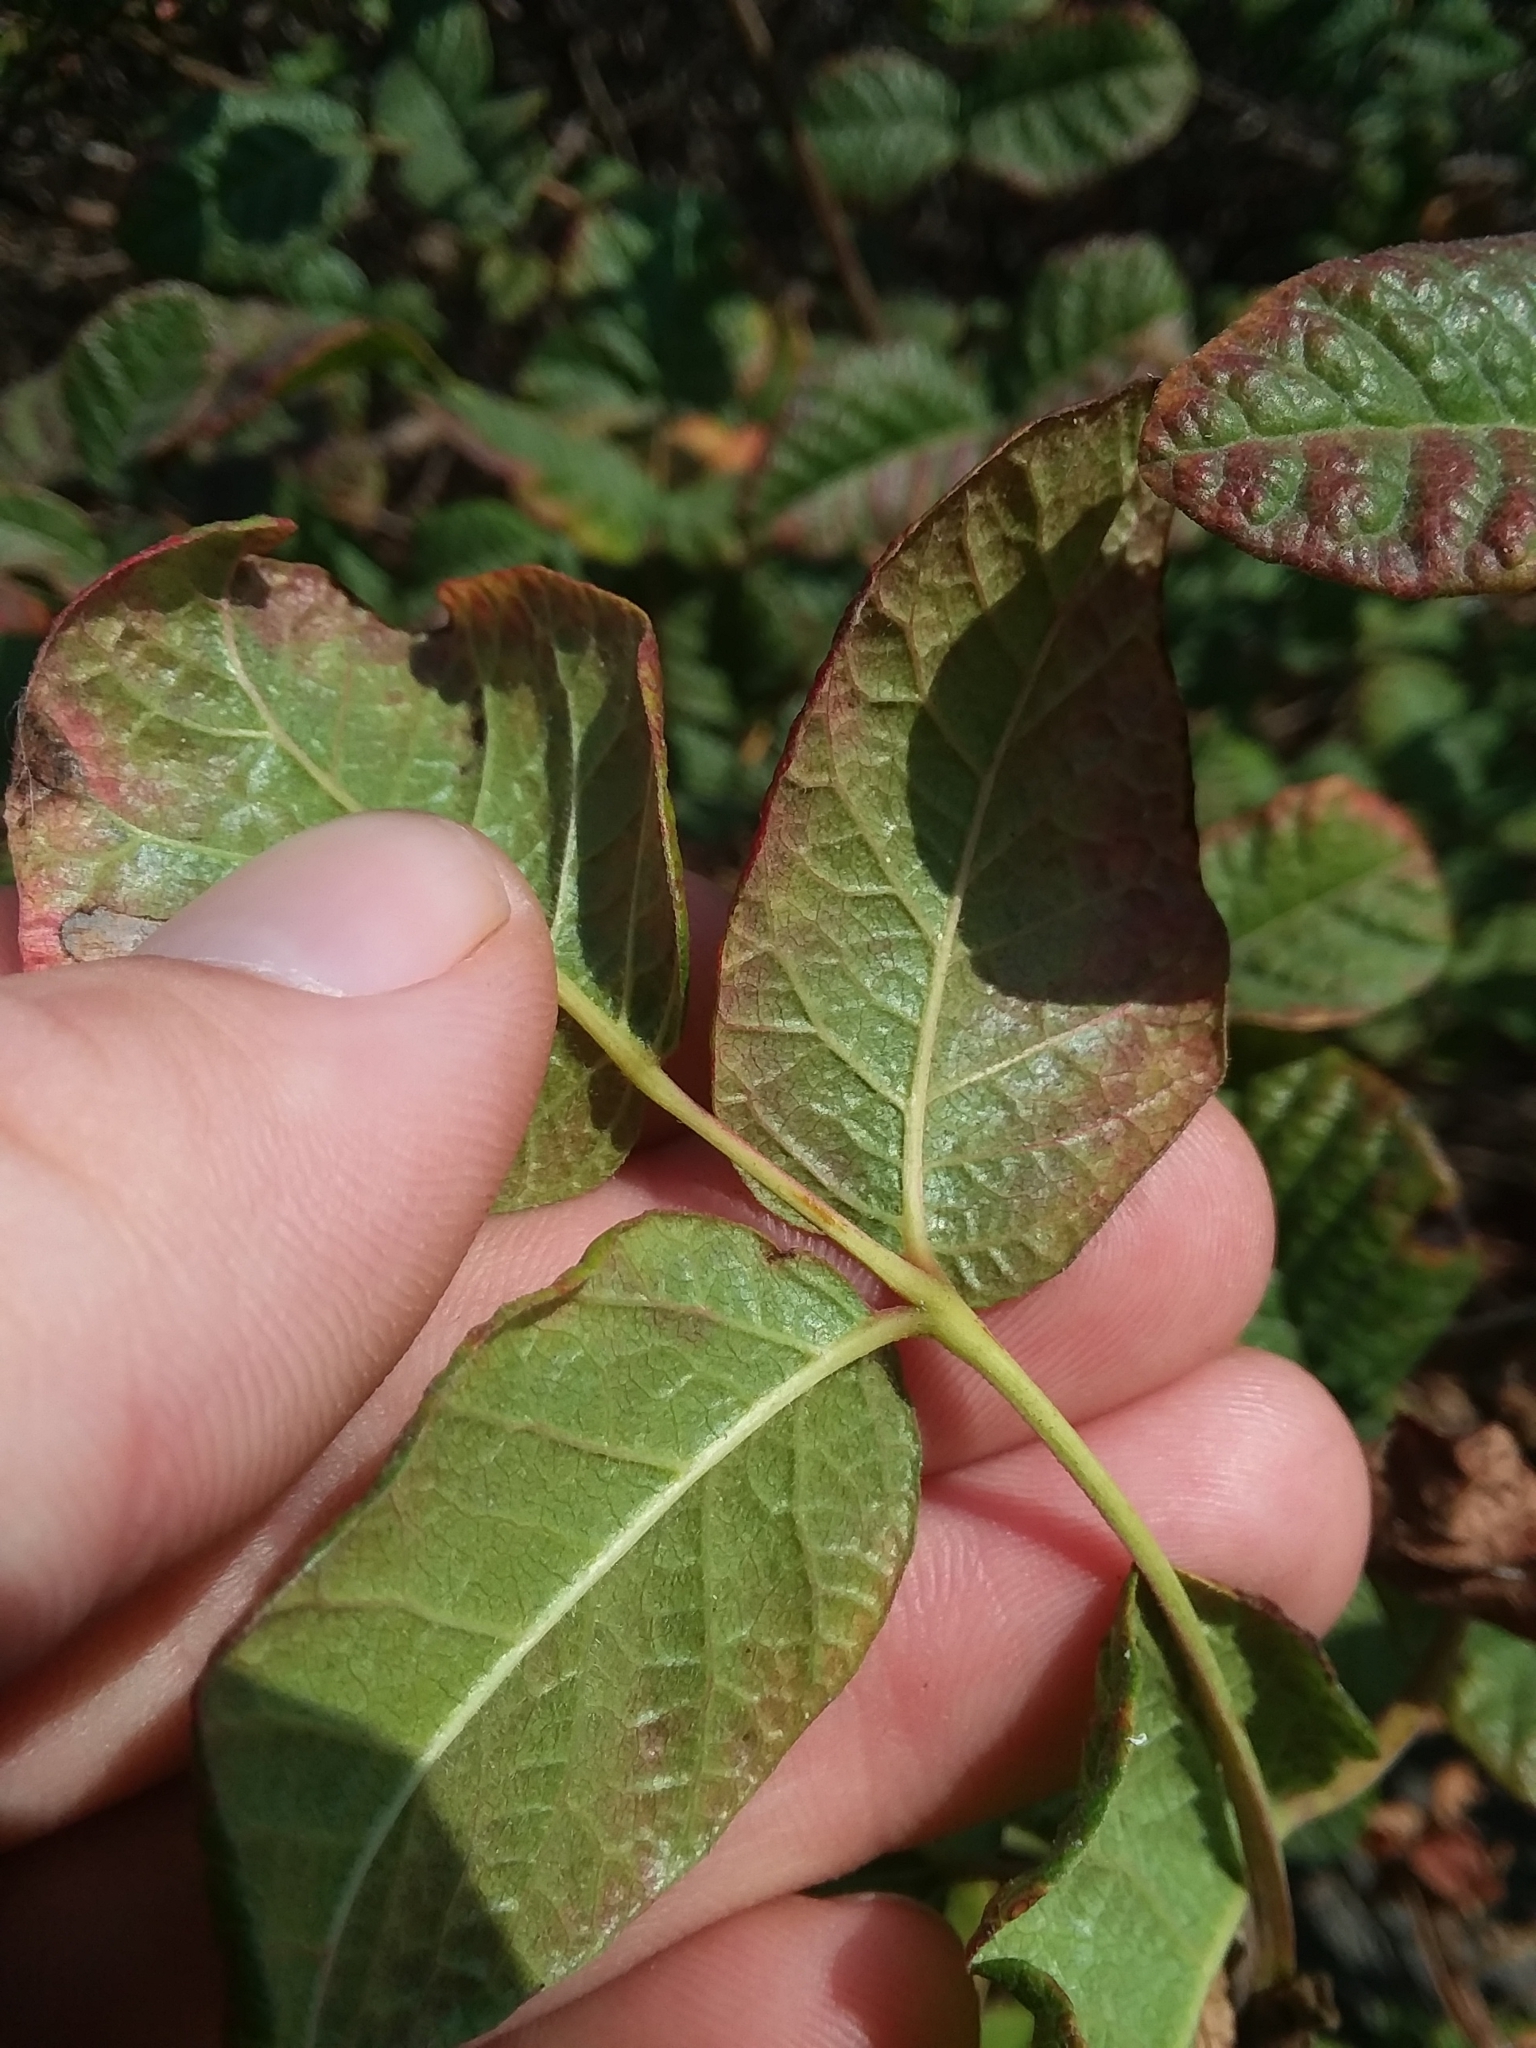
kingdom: Plantae
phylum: Tracheophyta
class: Magnoliopsida
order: Sapindales
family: Anacardiaceae
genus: Toxicodendron
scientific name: Toxicodendron diversilobum
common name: Pacific poison-oak
